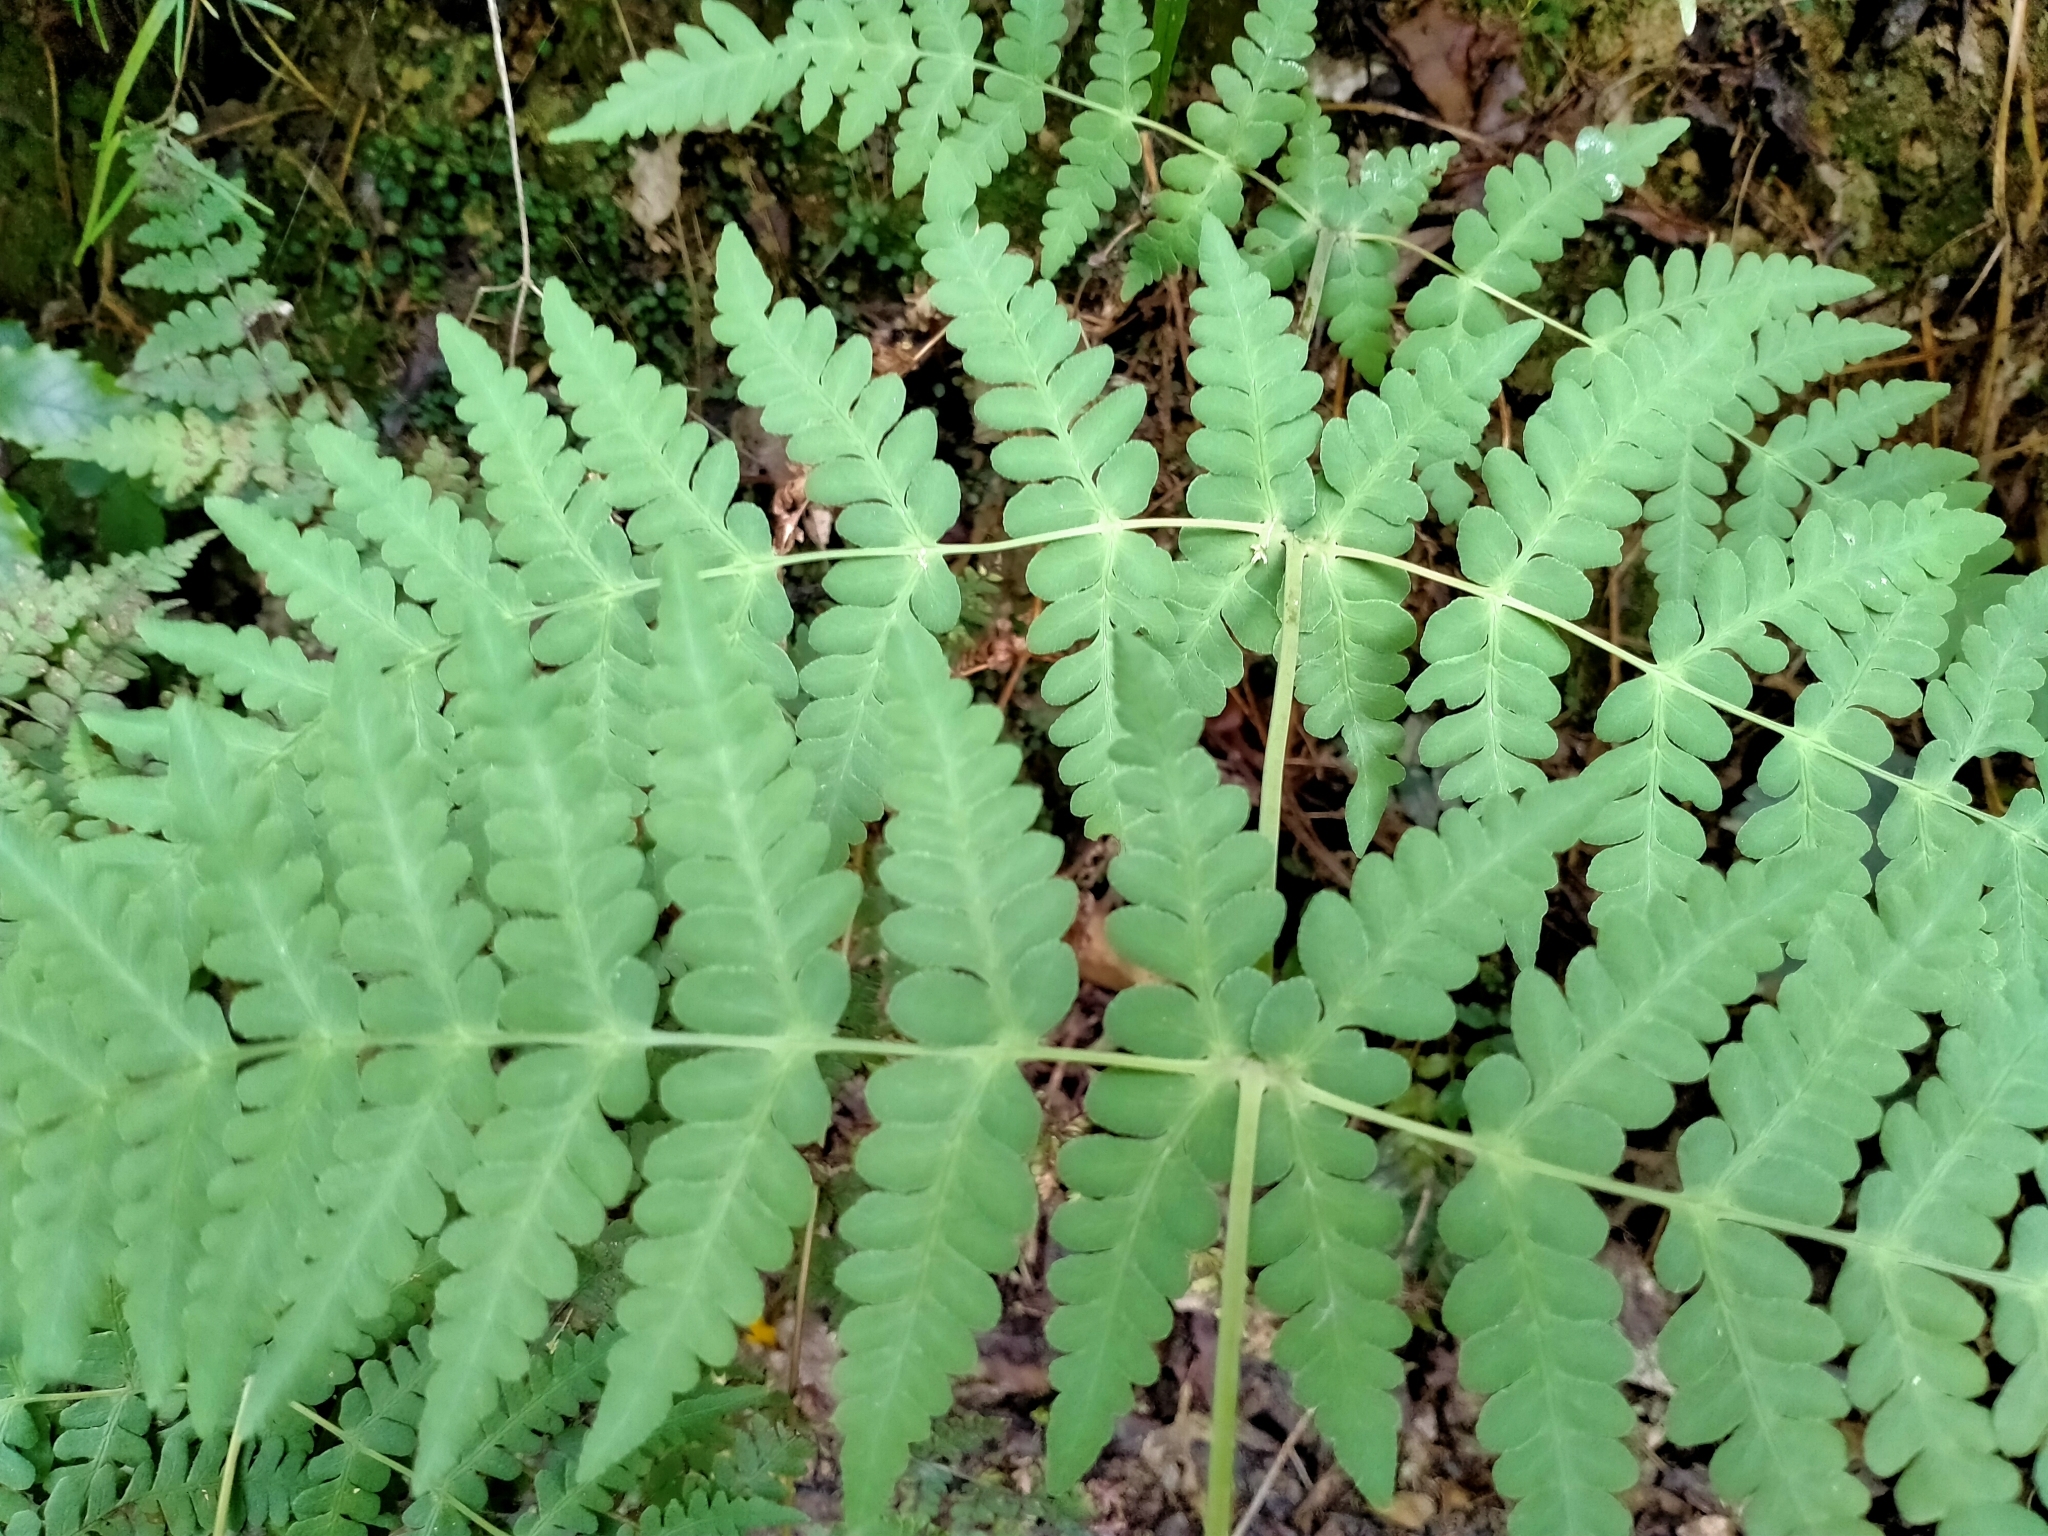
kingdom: Plantae
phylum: Tracheophyta
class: Polypodiopsida
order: Polypodiales
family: Dennstaedtiaceae
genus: Histiopteris
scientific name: Histiopteris incisa
